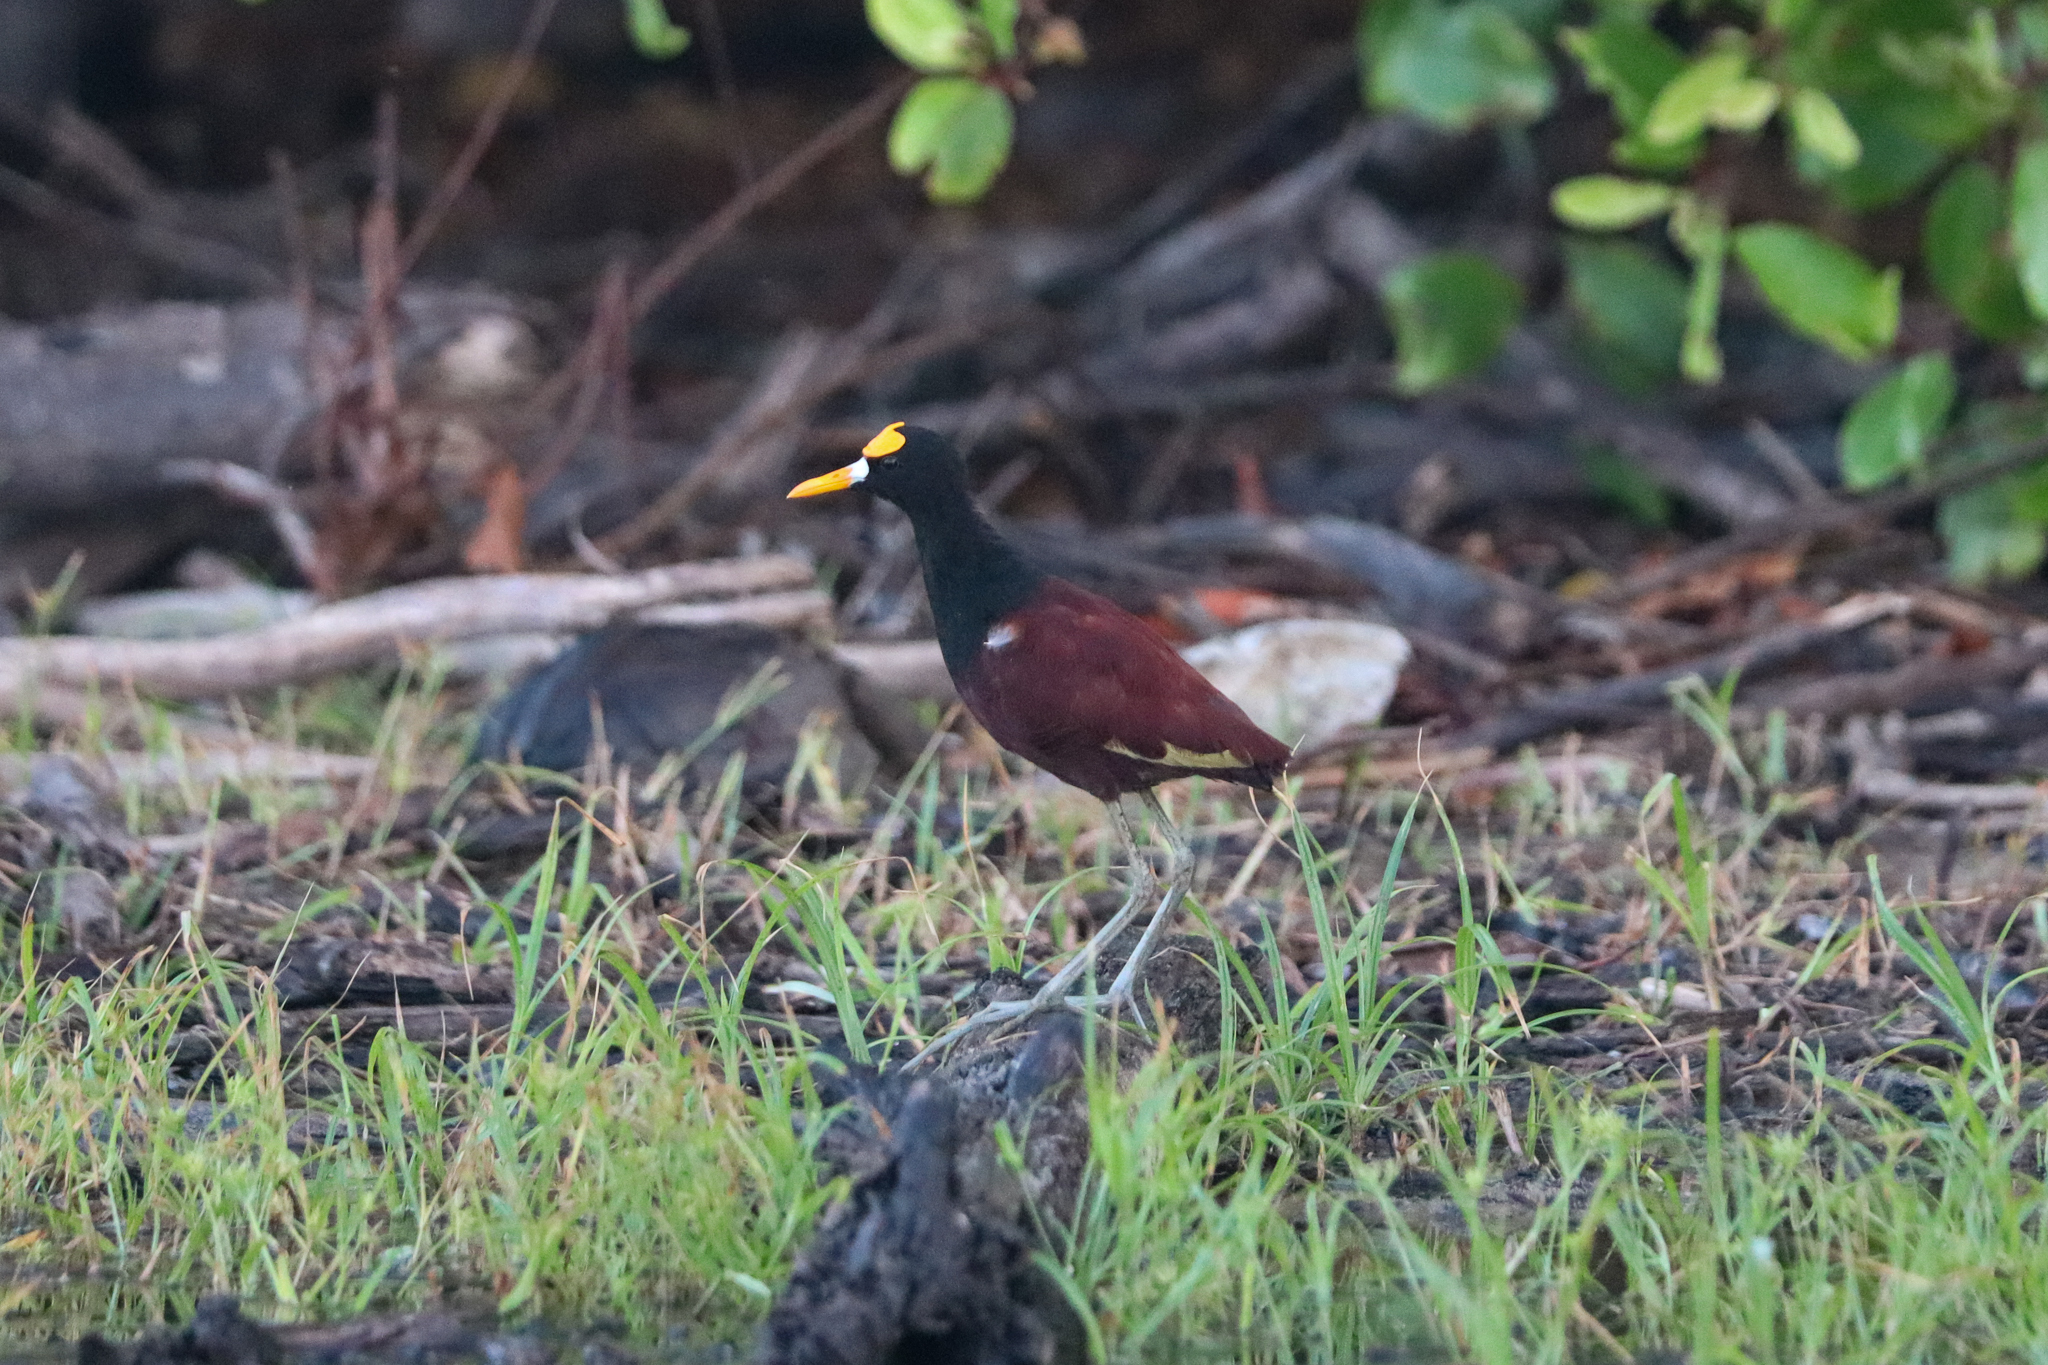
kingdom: Animalia
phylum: Chordata
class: Aves
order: Charadriiformes
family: Jacanidae
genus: Jacana
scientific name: Jacana spinosa
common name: Northern jacana
